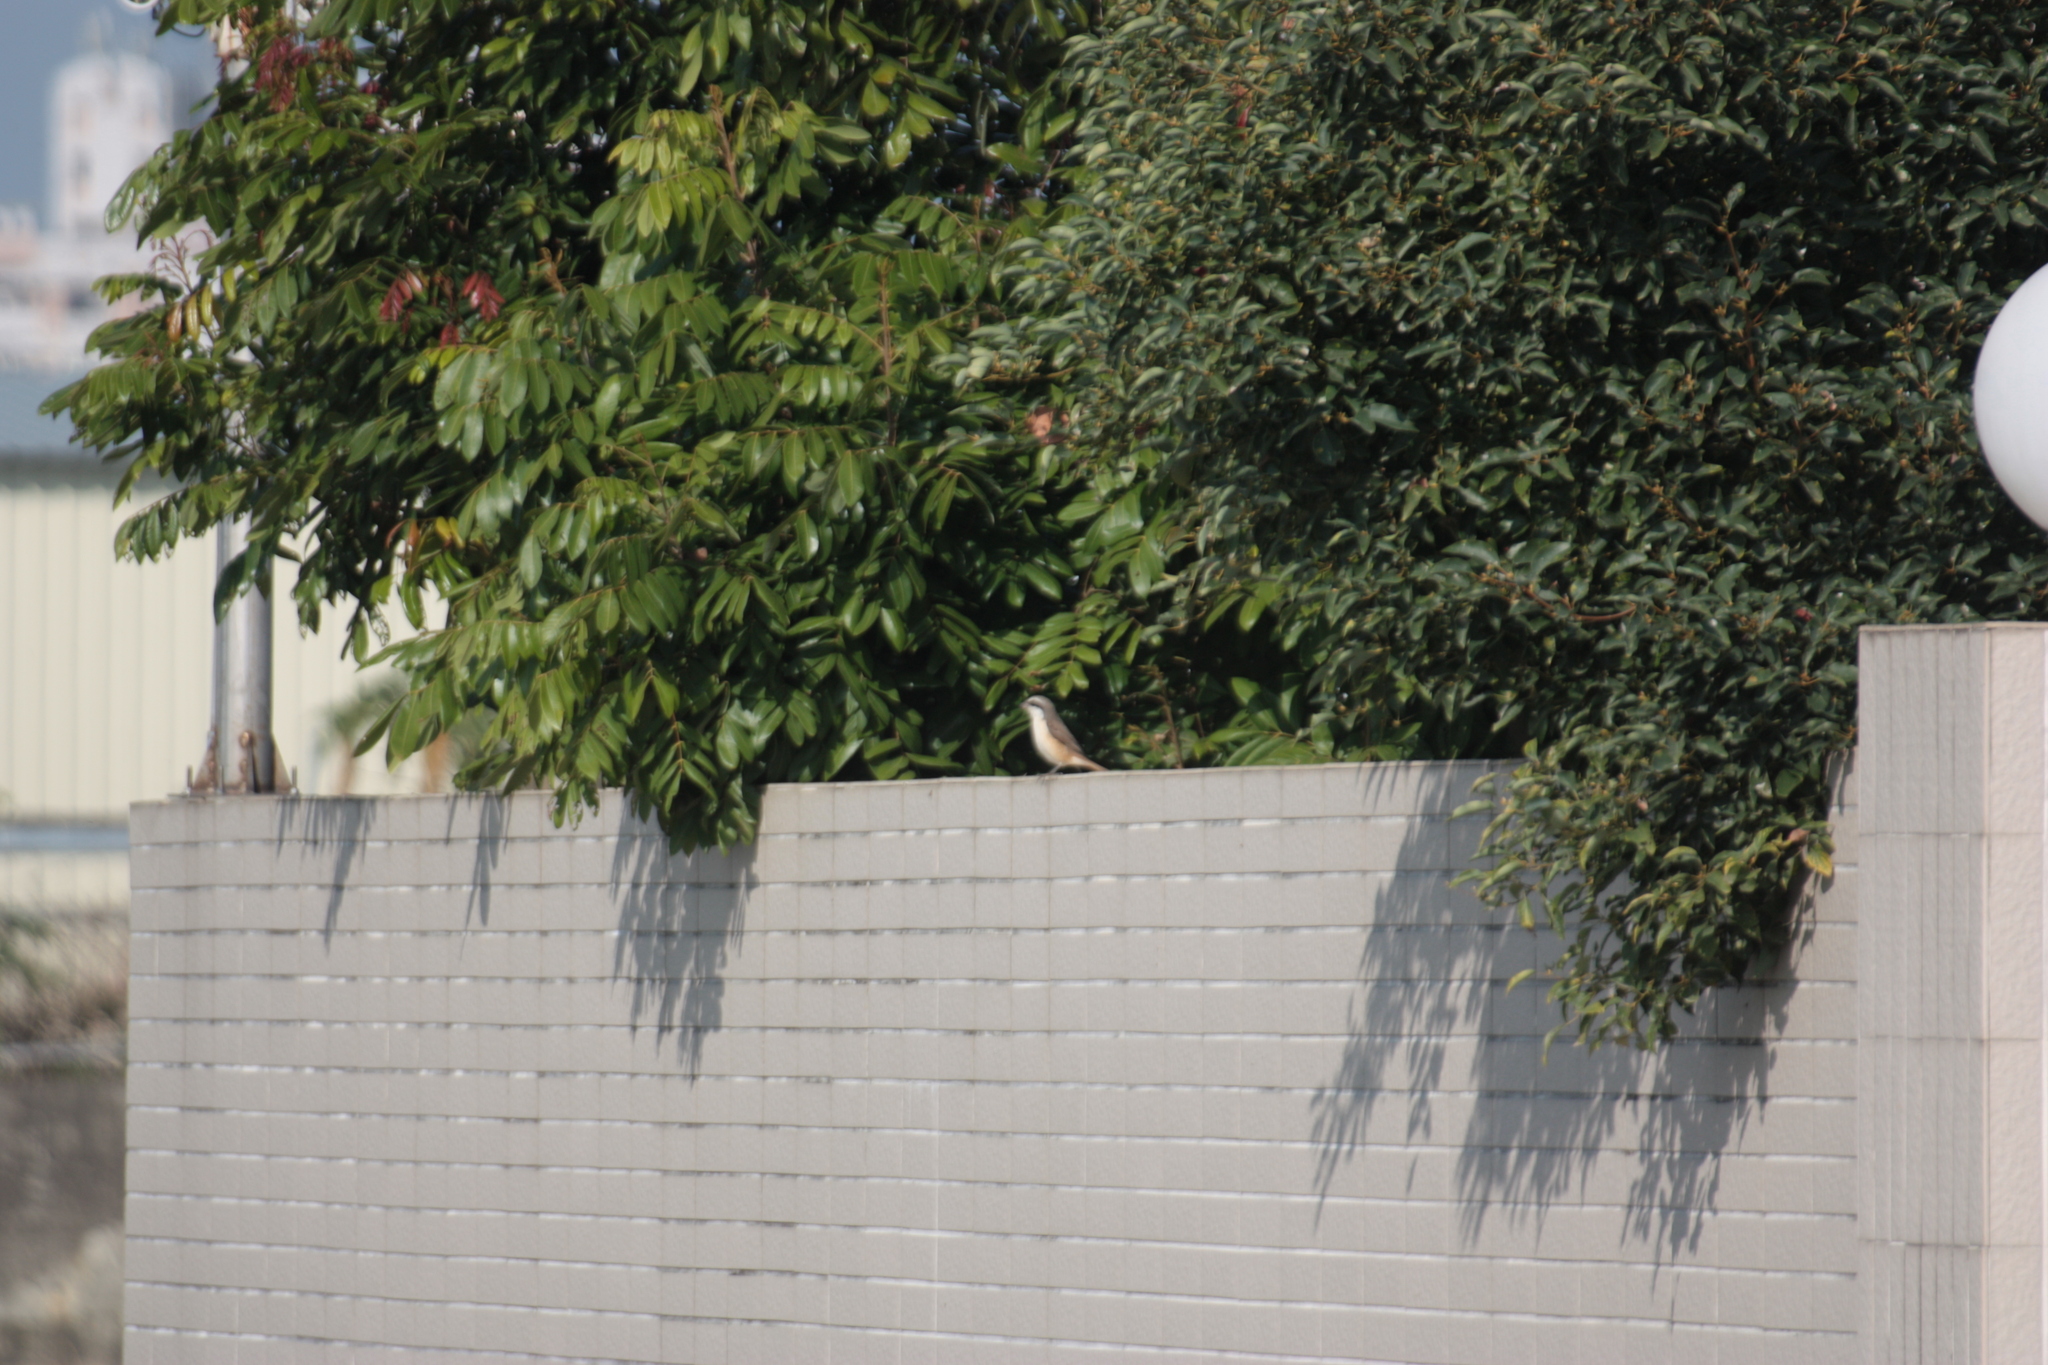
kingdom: Animalia
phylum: Chordata
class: Aves
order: Passeriformes
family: Laniidae
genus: Lanius
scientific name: Lanius cristatus
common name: Brown shrike
